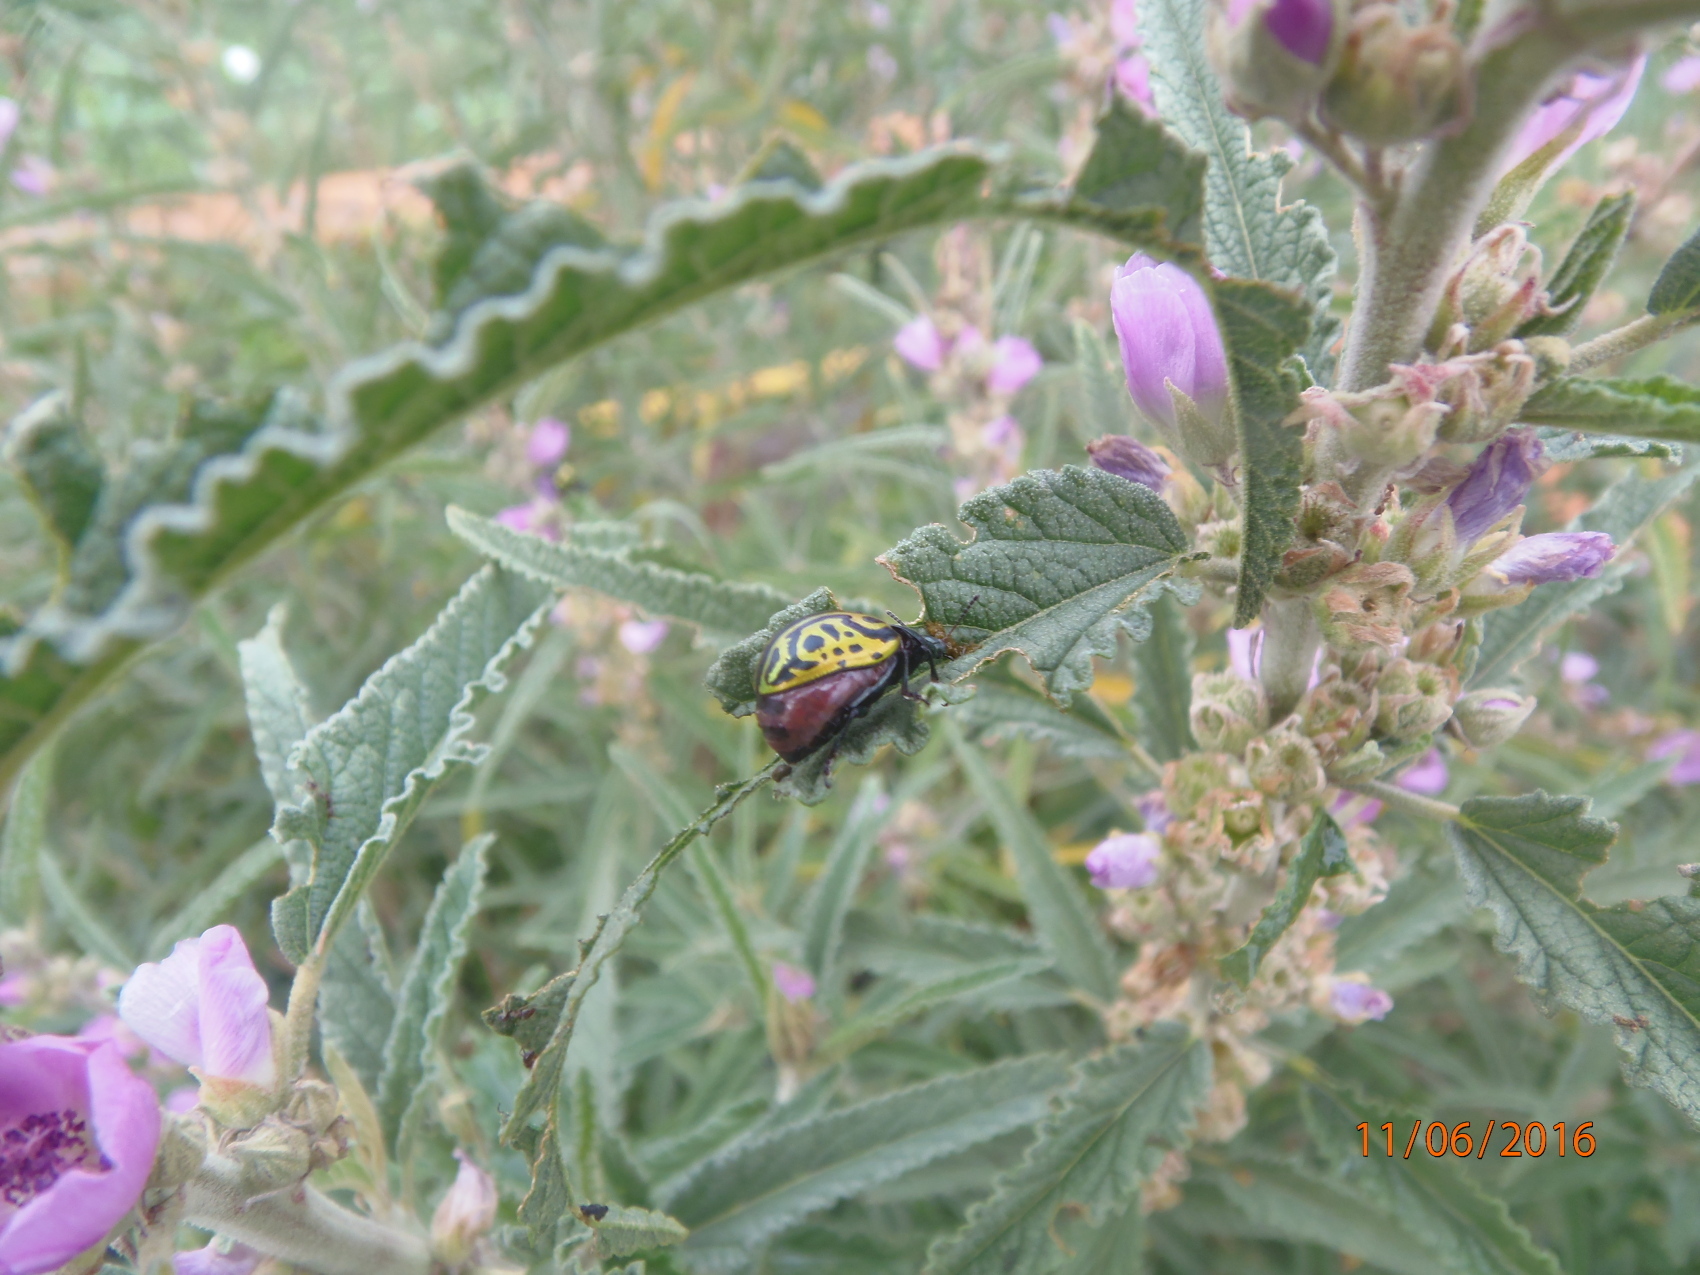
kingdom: Animalia
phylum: Arthropoda
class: Insecta
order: Coleoptera
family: Chrysomelidae
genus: Calligrapha
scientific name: Calligrapha mexicana
